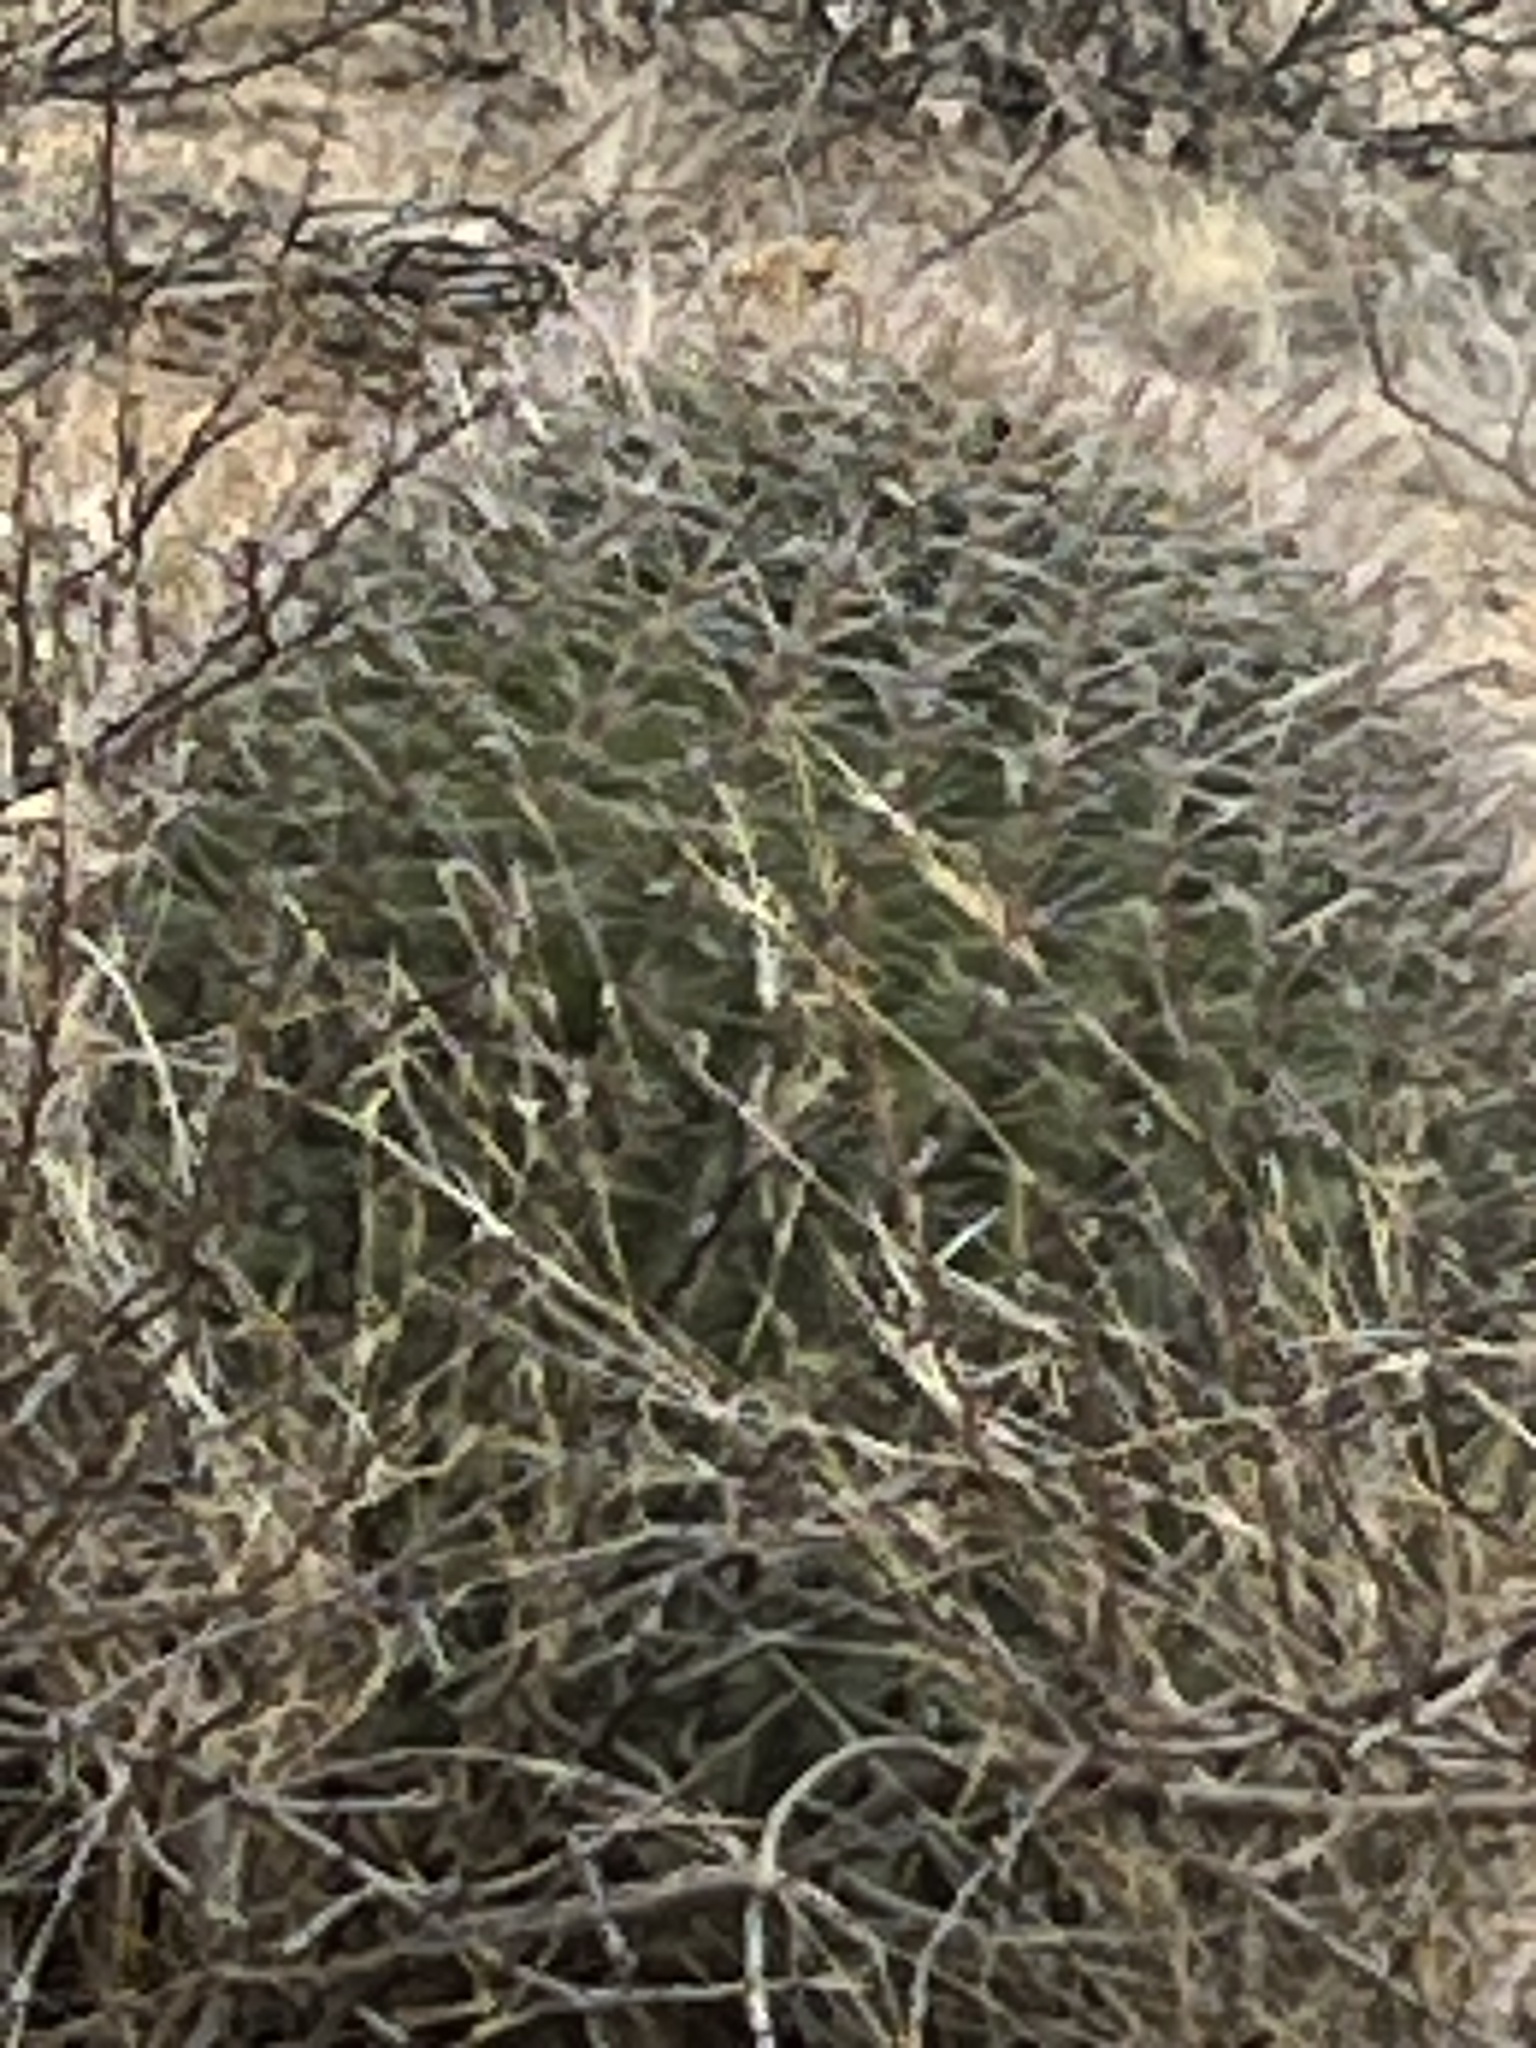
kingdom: Plantae
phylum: Tracheophyta
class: Magnoliopsida
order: Caryophyllales
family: Cactaceae
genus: Ferocactus
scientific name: Ferocactus wislizeni
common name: Candy barrel cactus
